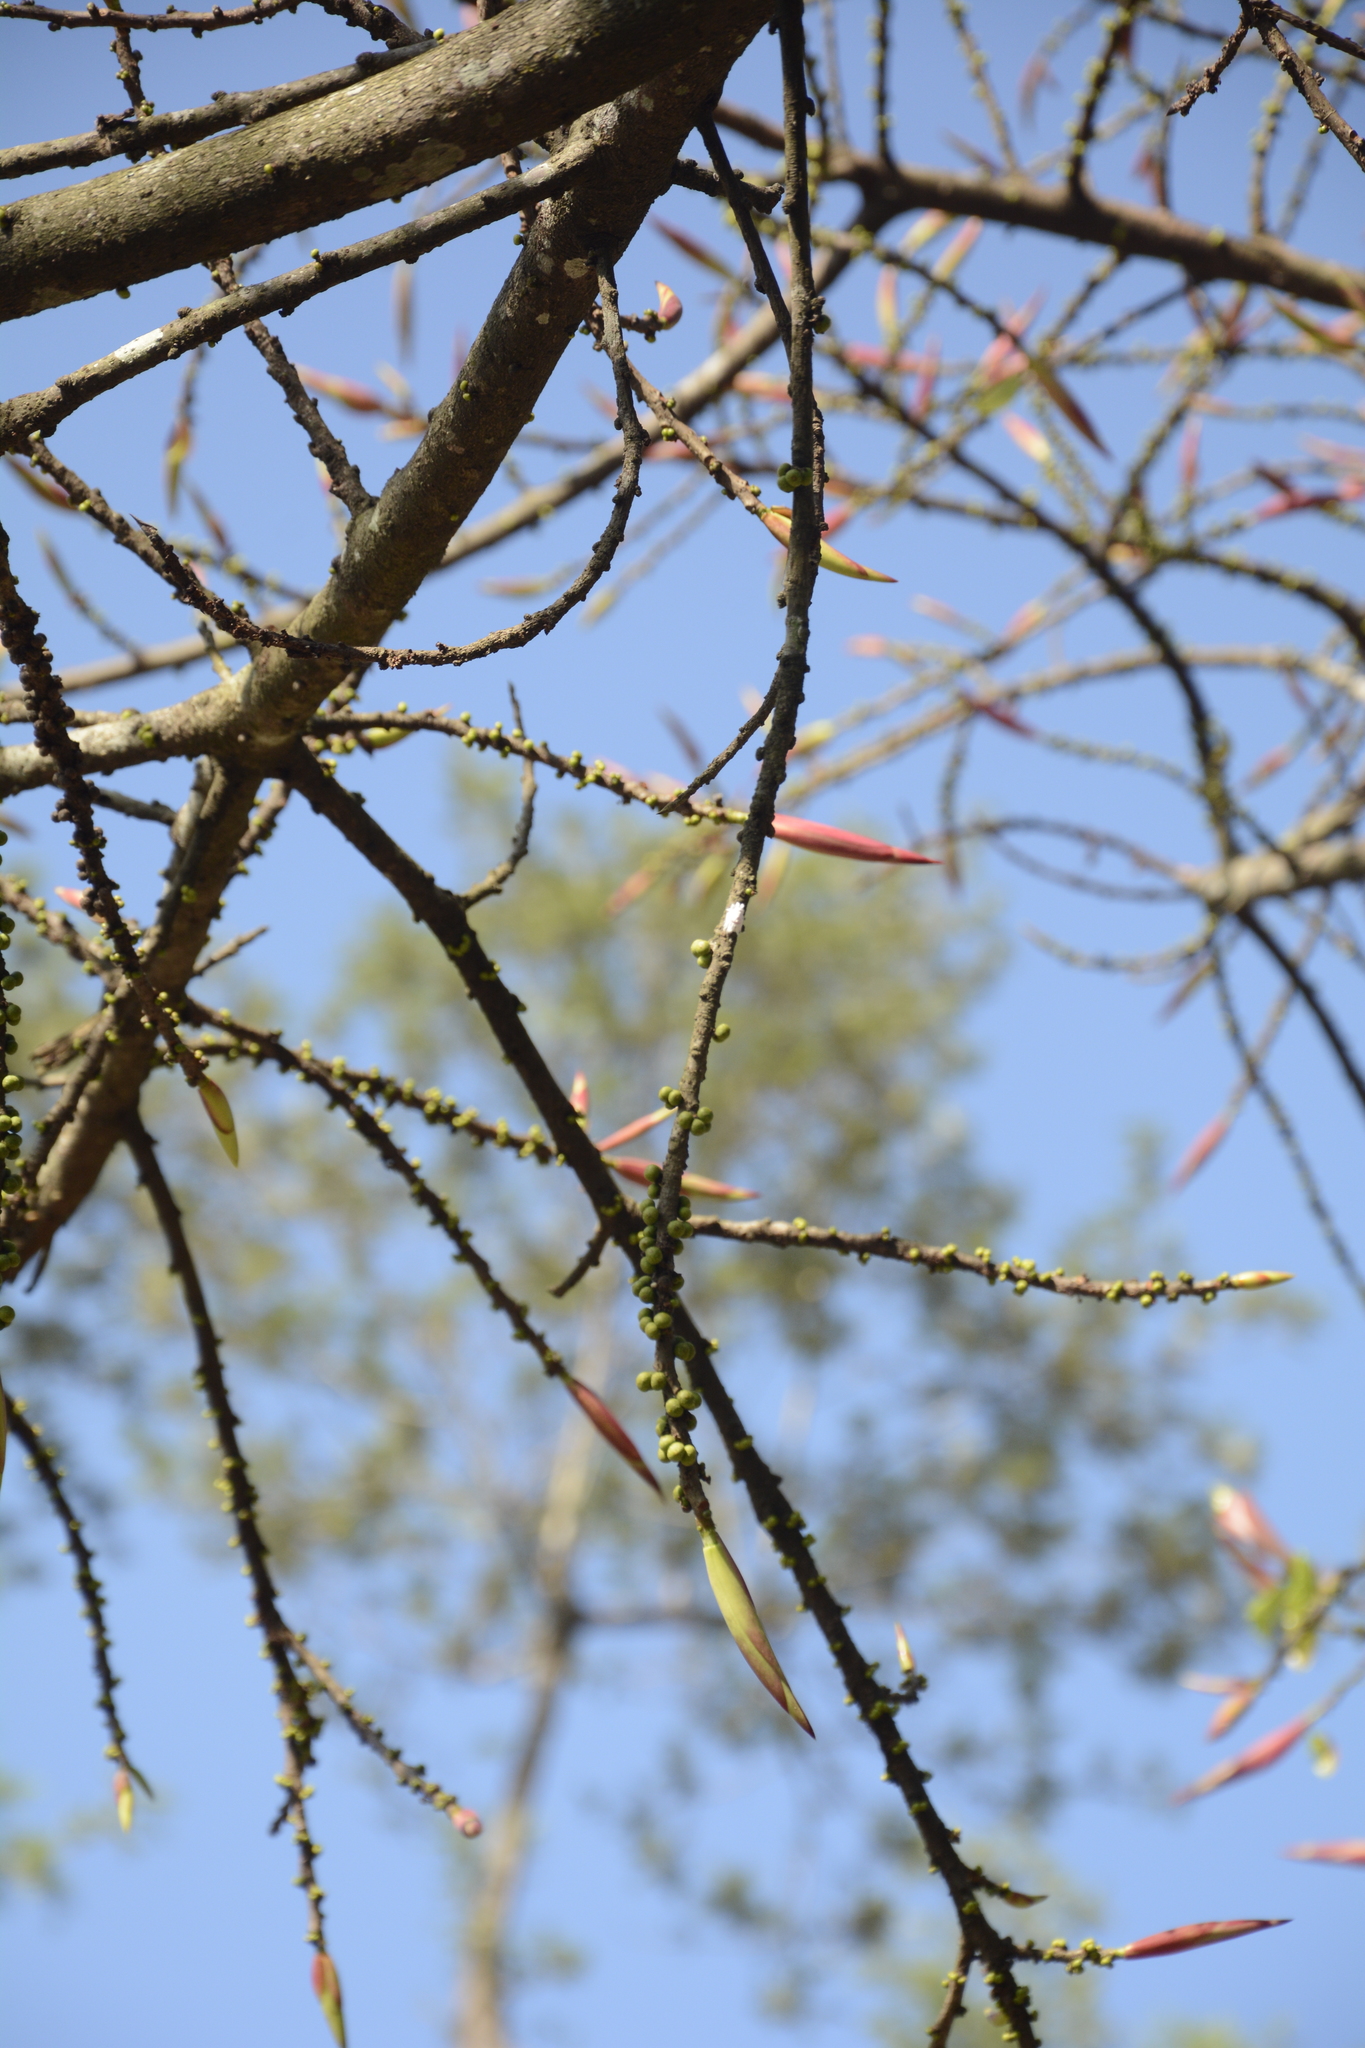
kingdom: Plantae
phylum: Tracheophyta
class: Magnoliopsida
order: Rosales
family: Moraceae
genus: Ficus
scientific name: Ficus tsjakela
